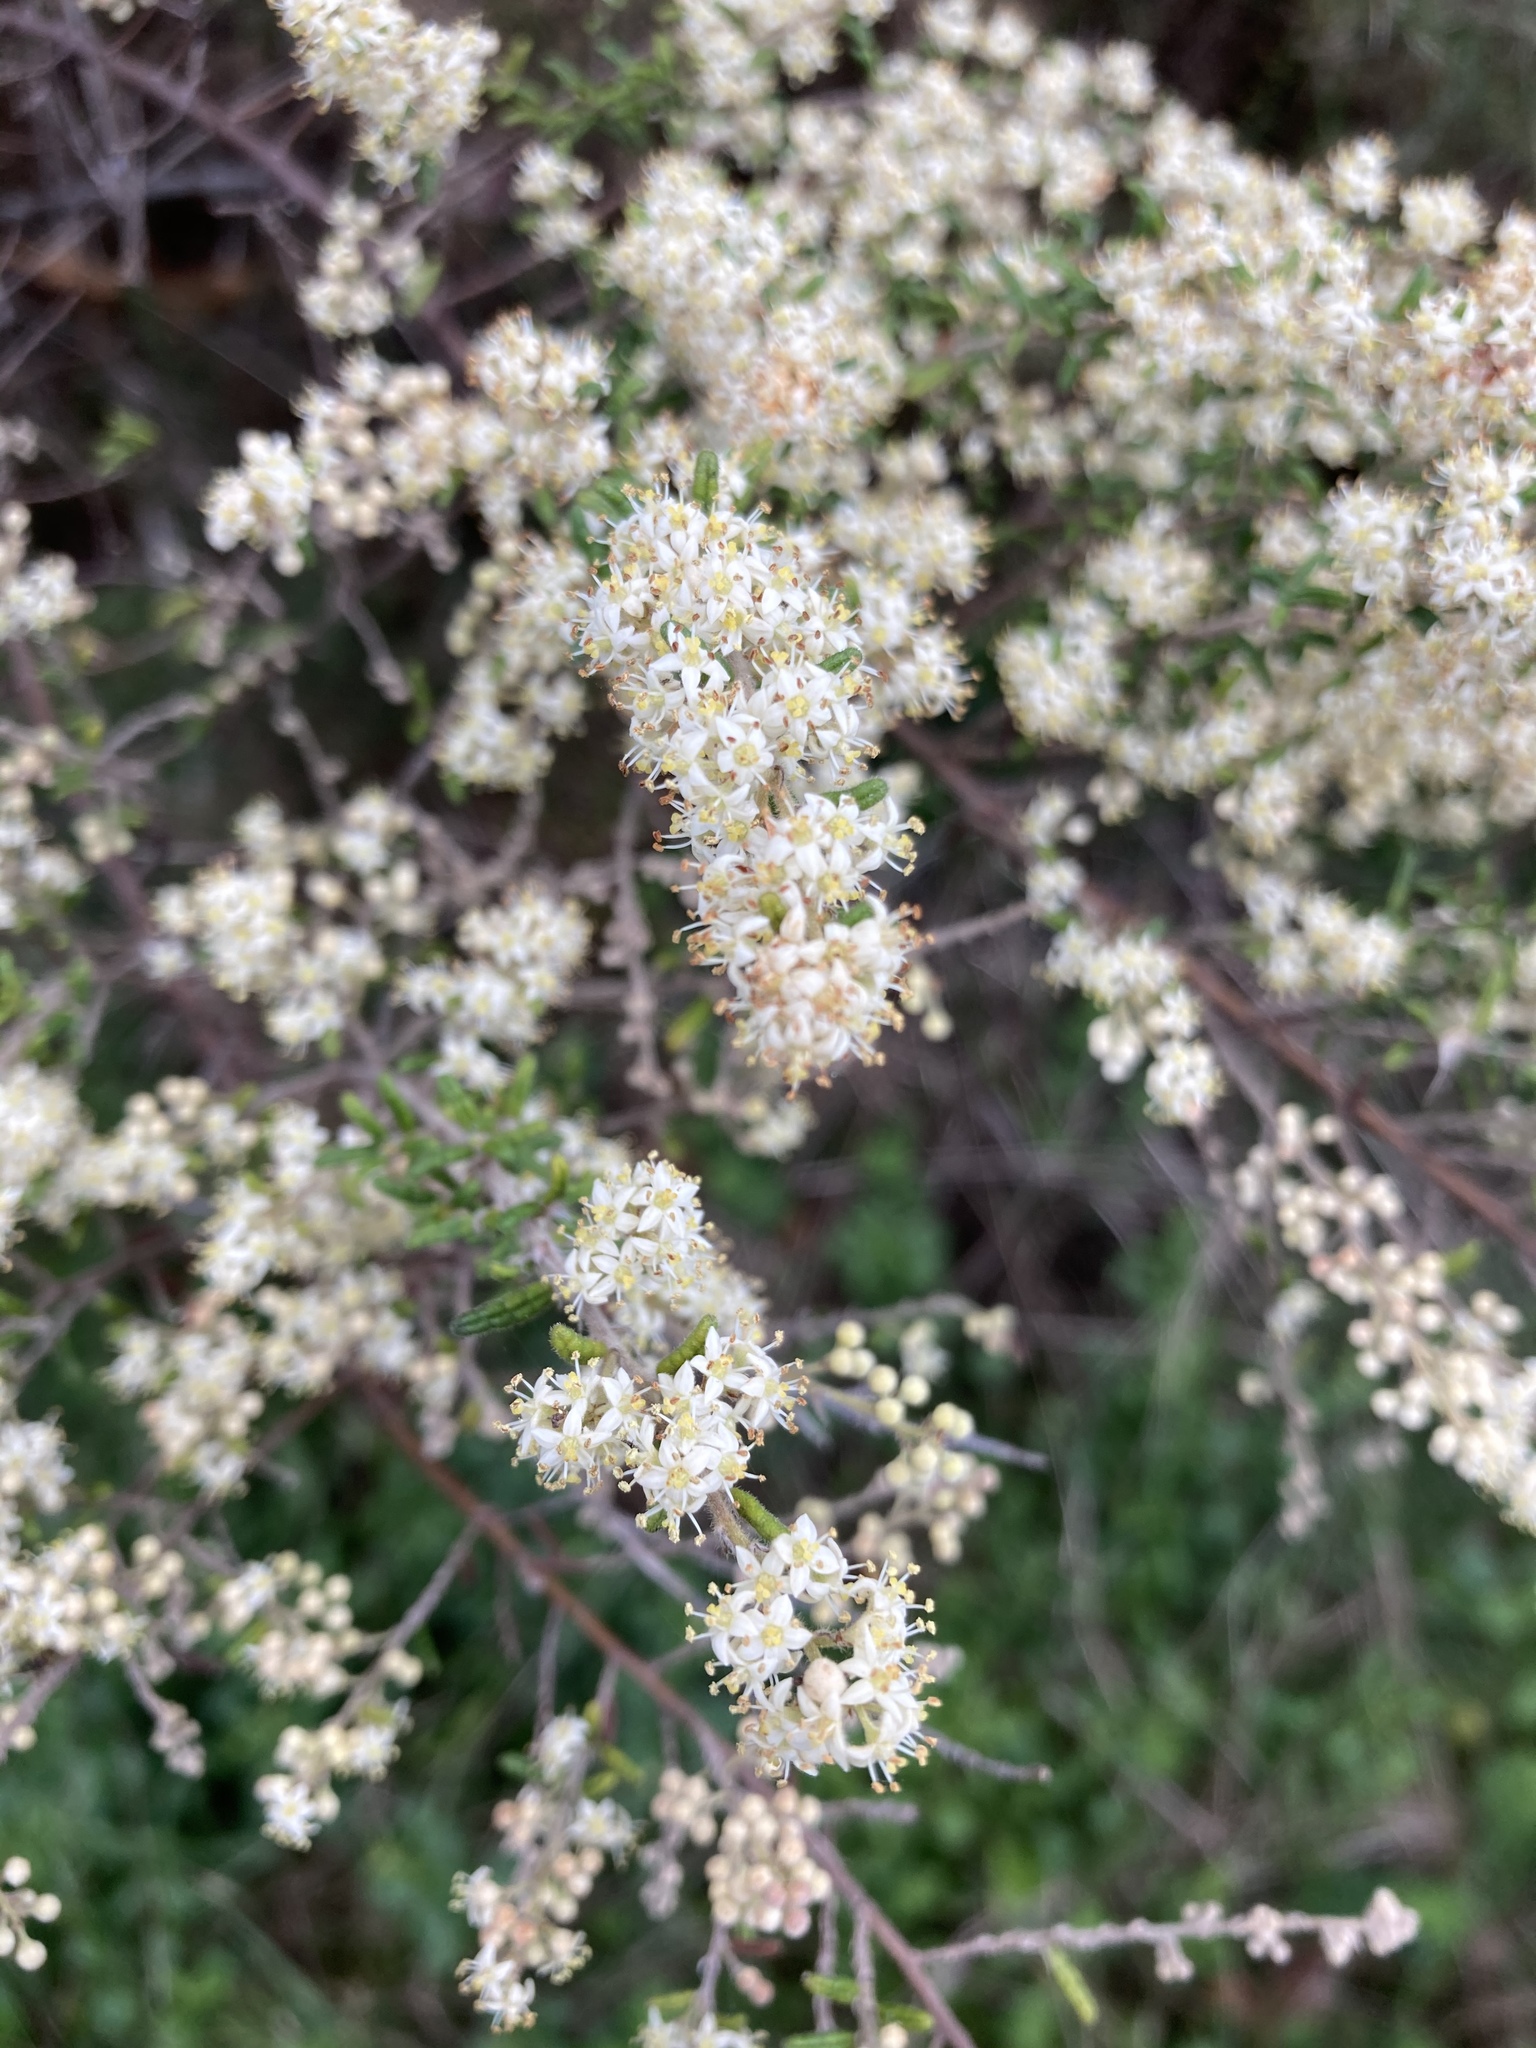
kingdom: Plantae
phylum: Tracheophyta
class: Magnoliopsida
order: Rosales
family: Rhamnaceae
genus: Pomaderris
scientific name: Pomaderris amoena
